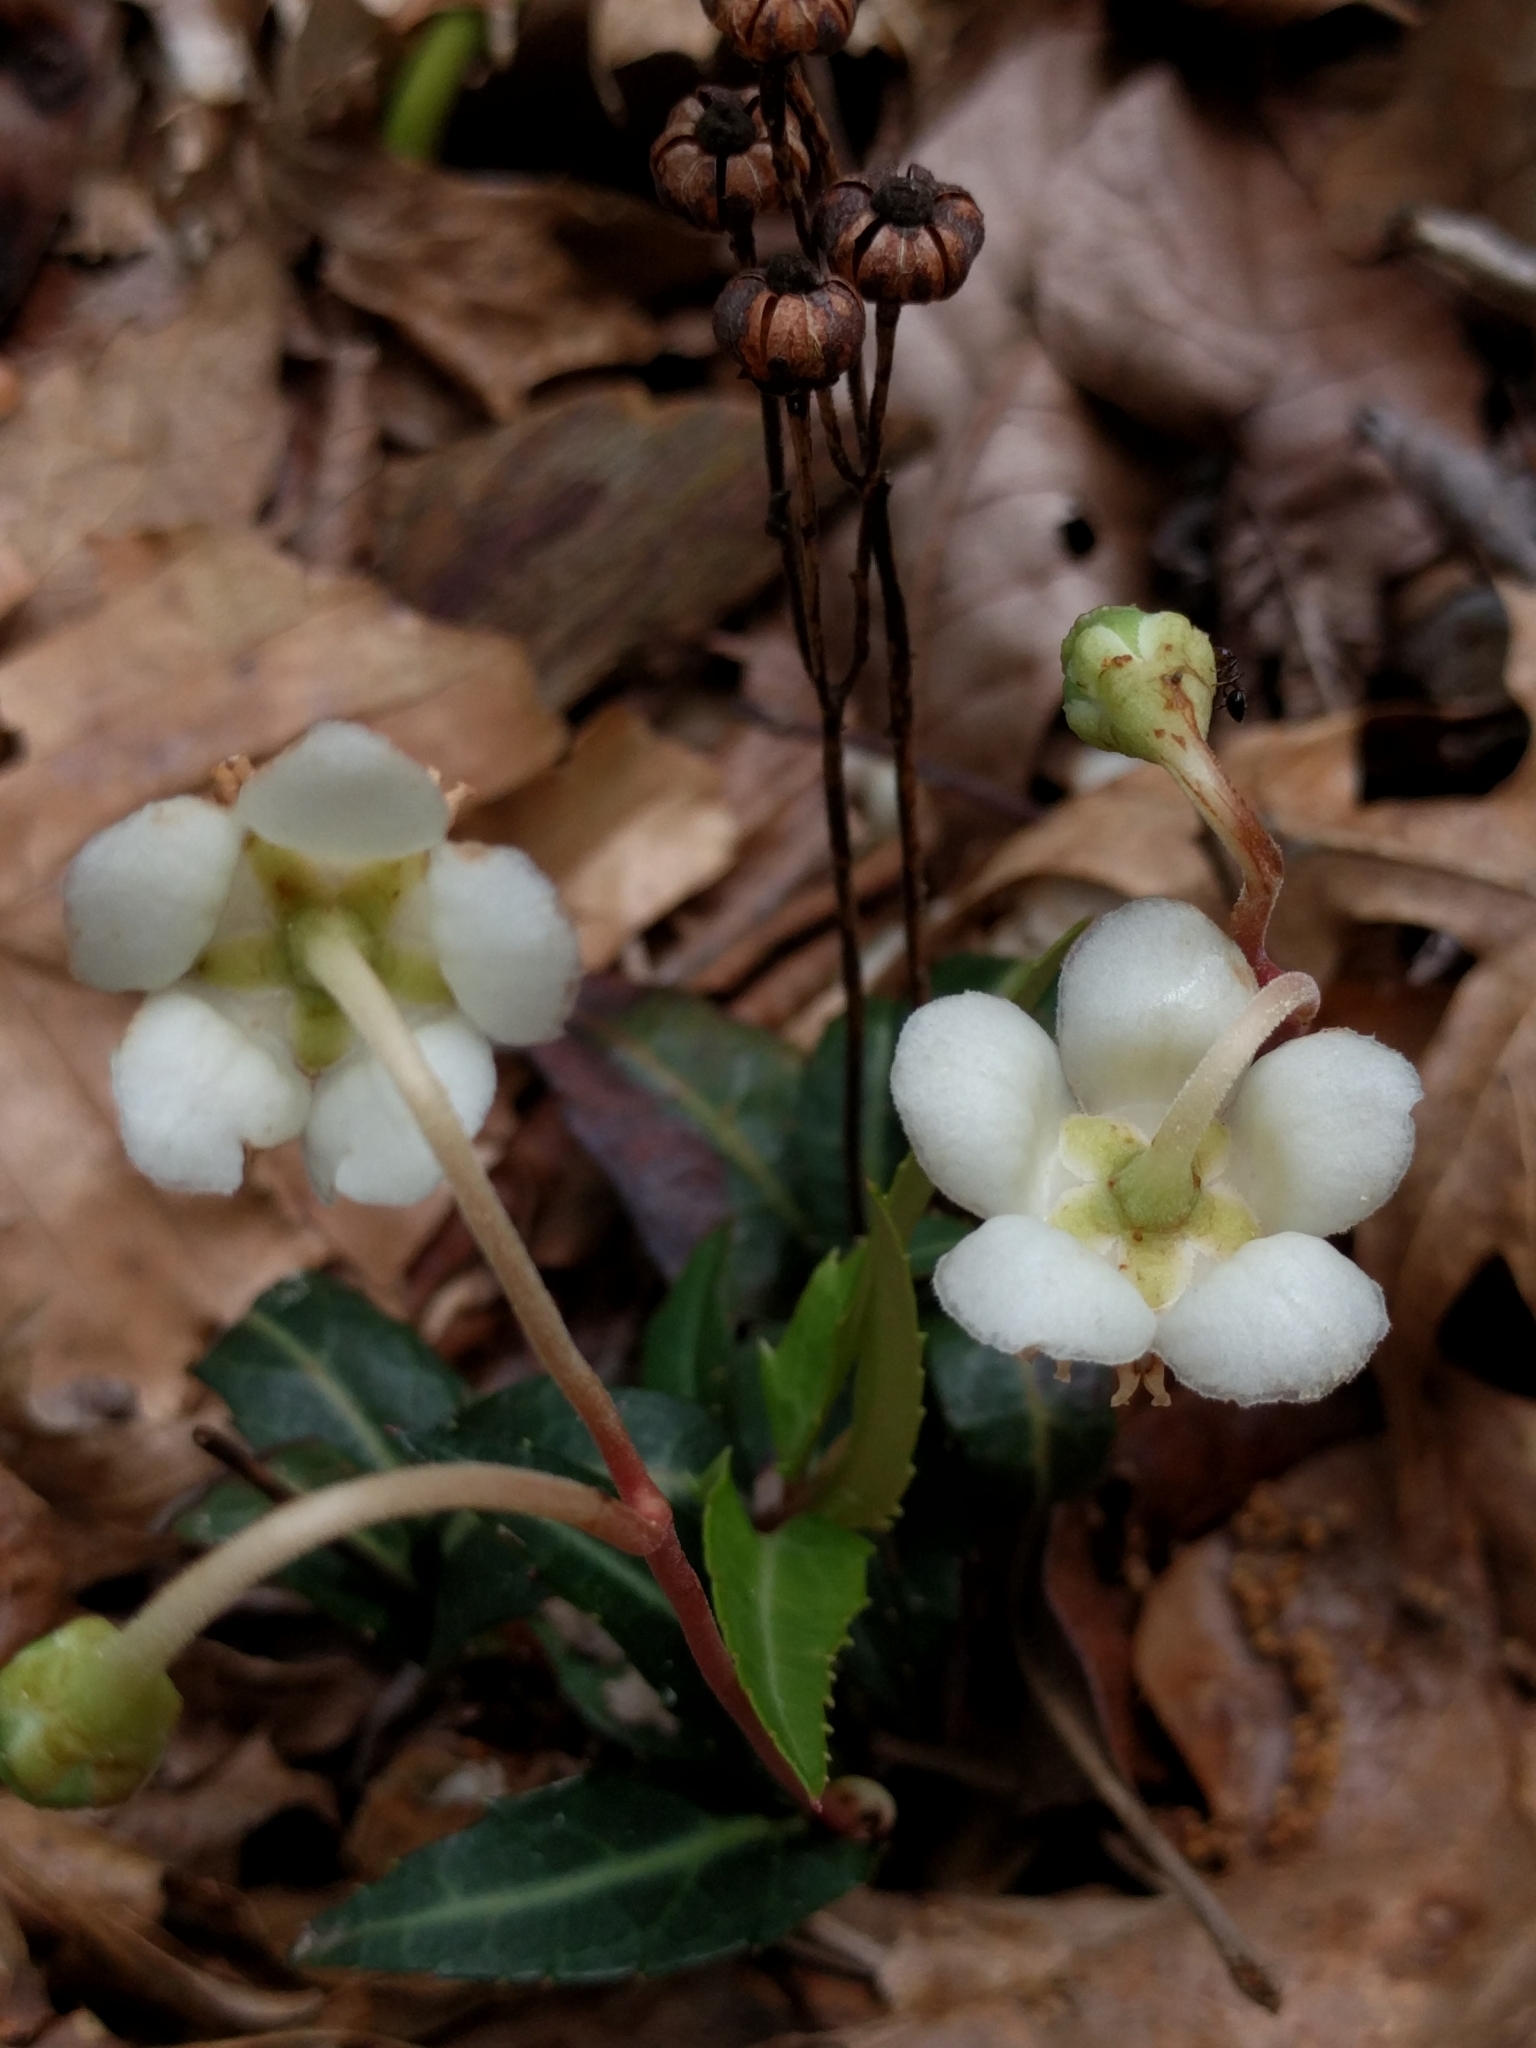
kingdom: Plantae
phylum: Tracheophyta
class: Magnoliopsida
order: Ericales
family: Ericaceae
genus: Chimaphila
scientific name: Chimaphila maculata
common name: Spotted pipsissewa
